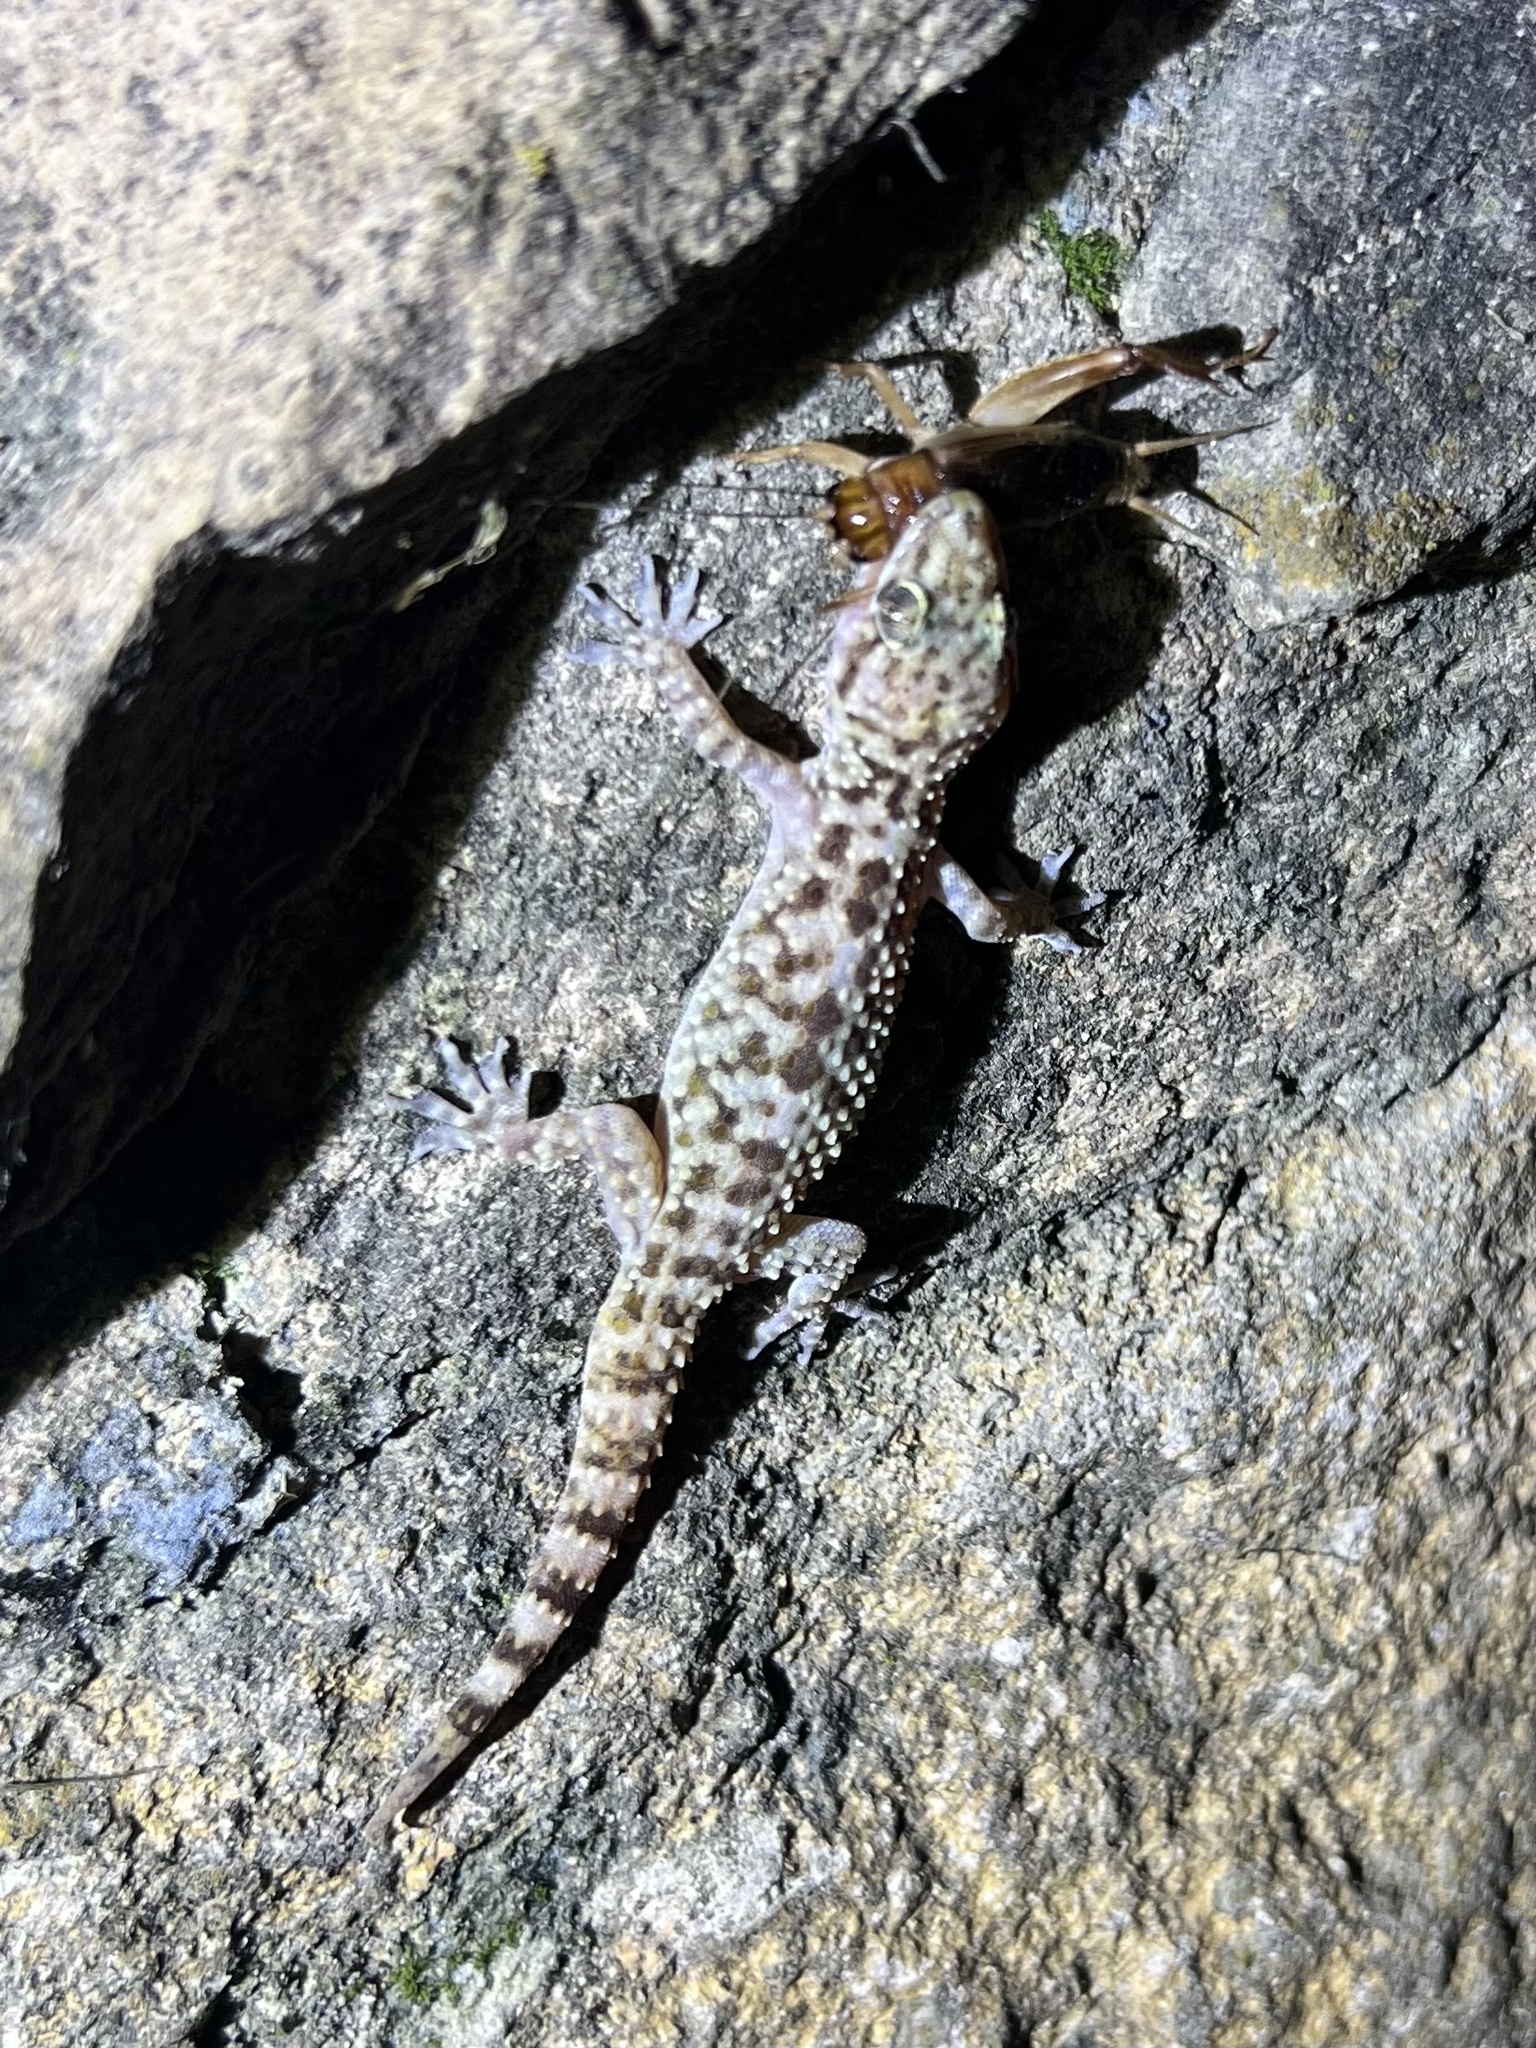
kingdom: Animalia
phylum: Chordata
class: Squamata
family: Gekkonidae
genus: Hemidactylus
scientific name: Hemidactylus turcicus
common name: Turkish gecko
